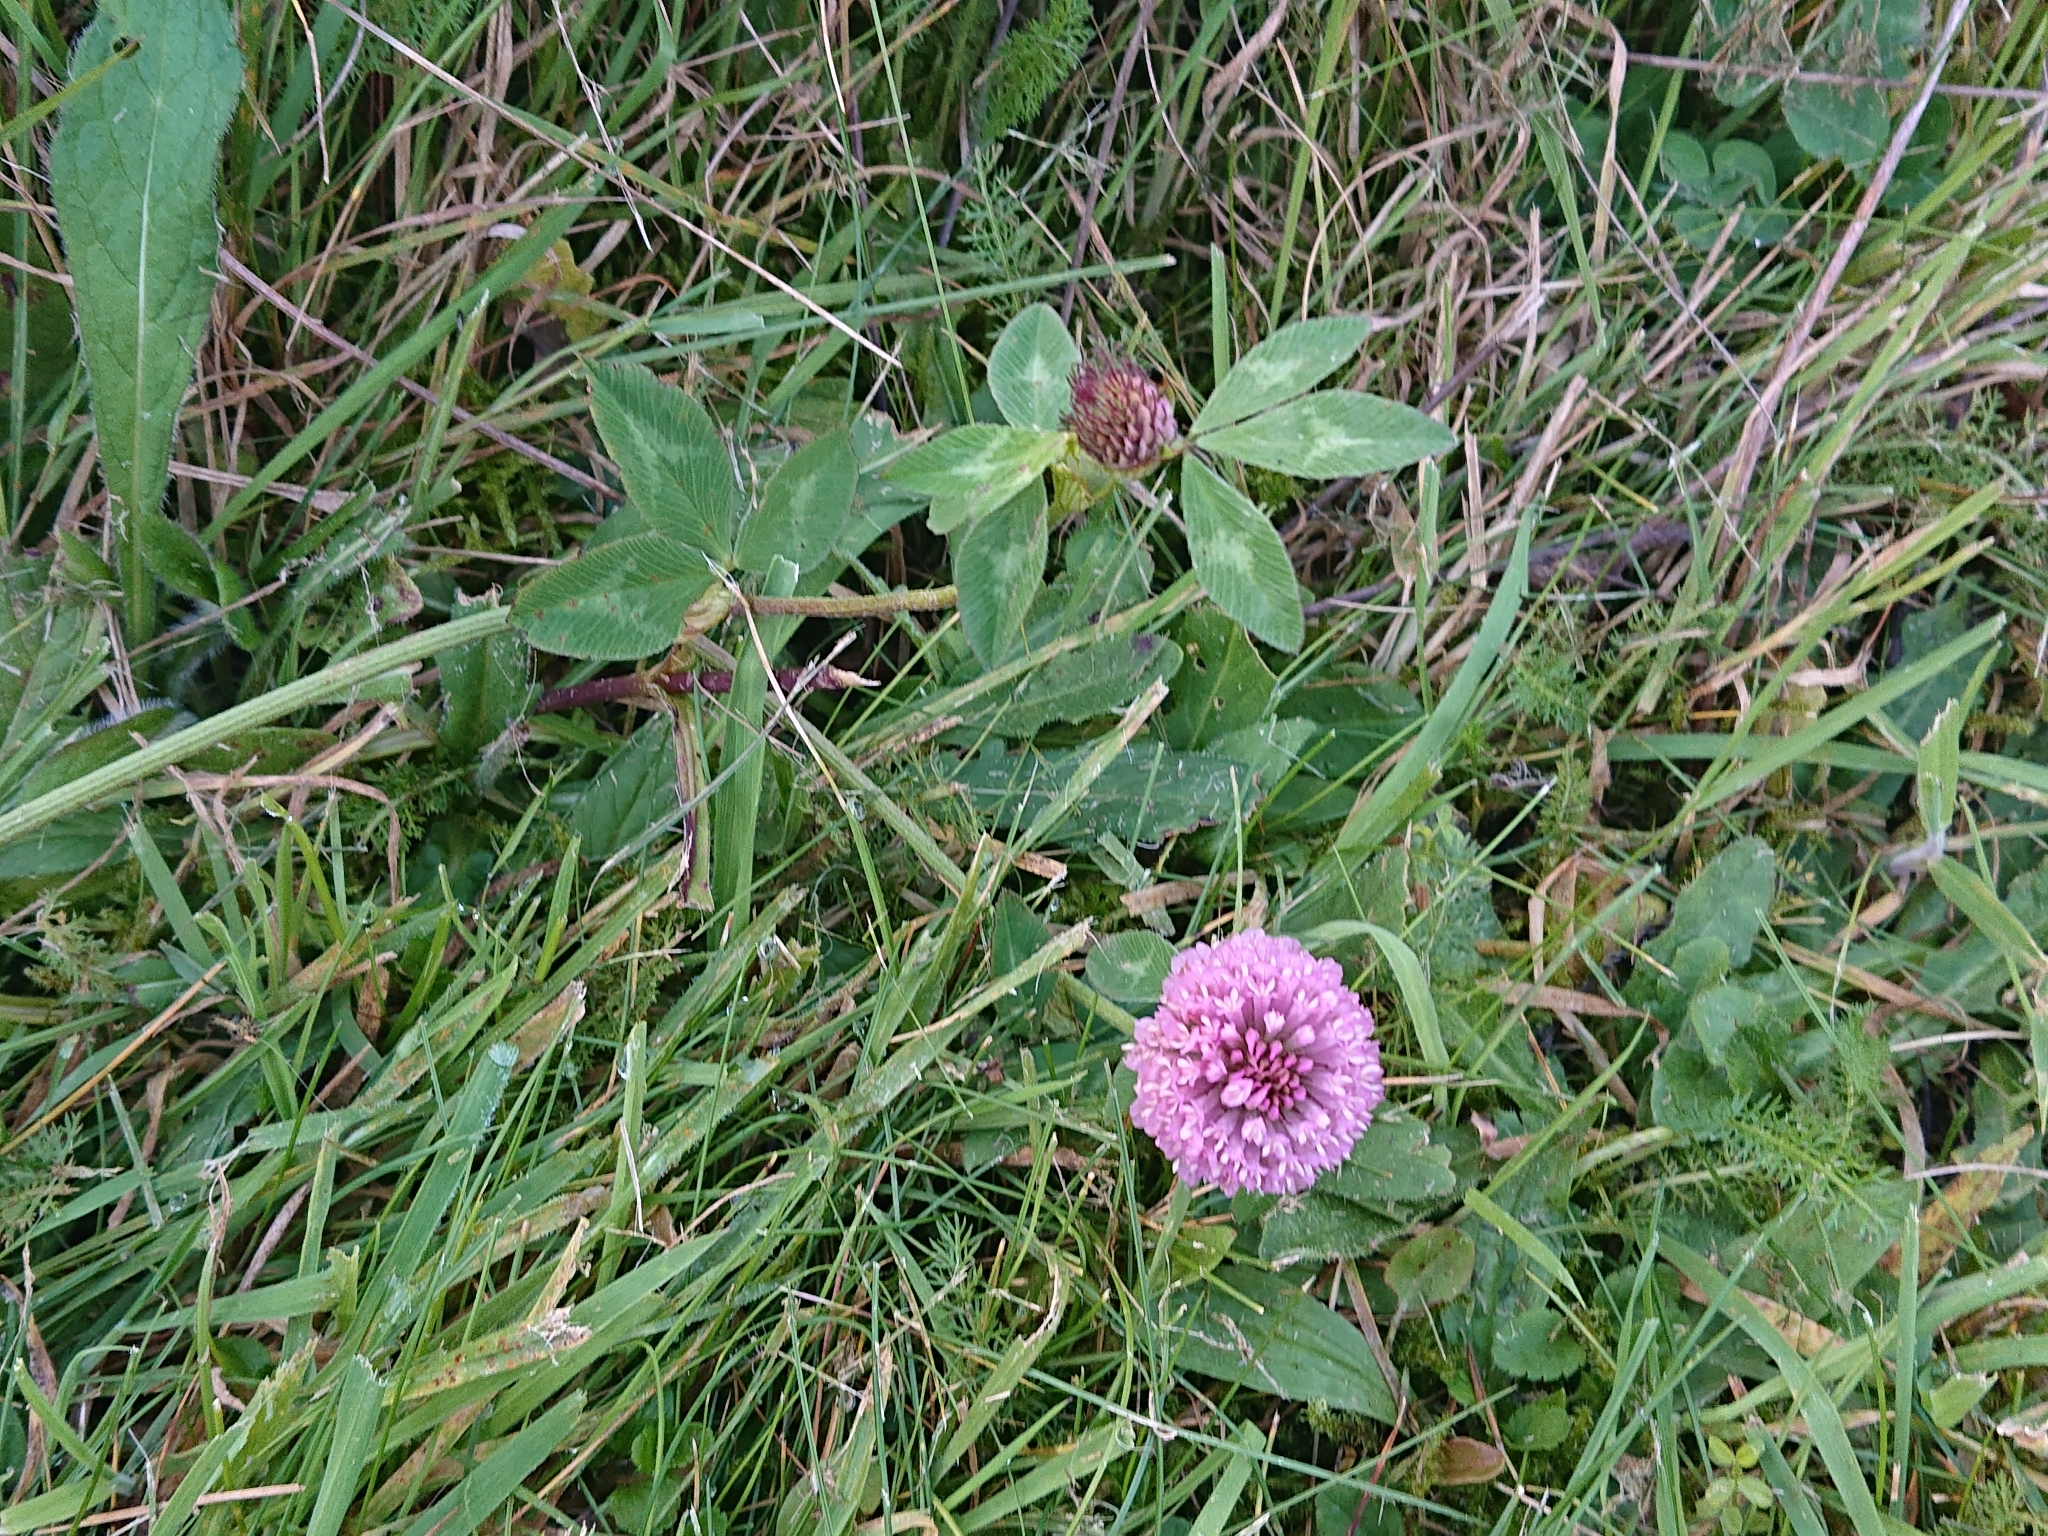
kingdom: Plantae
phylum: Tracheophyta
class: Magnoliopsida
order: Fabales
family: Fabaceae
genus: Trifolium
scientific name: Trifolium pratense
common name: Red clover
